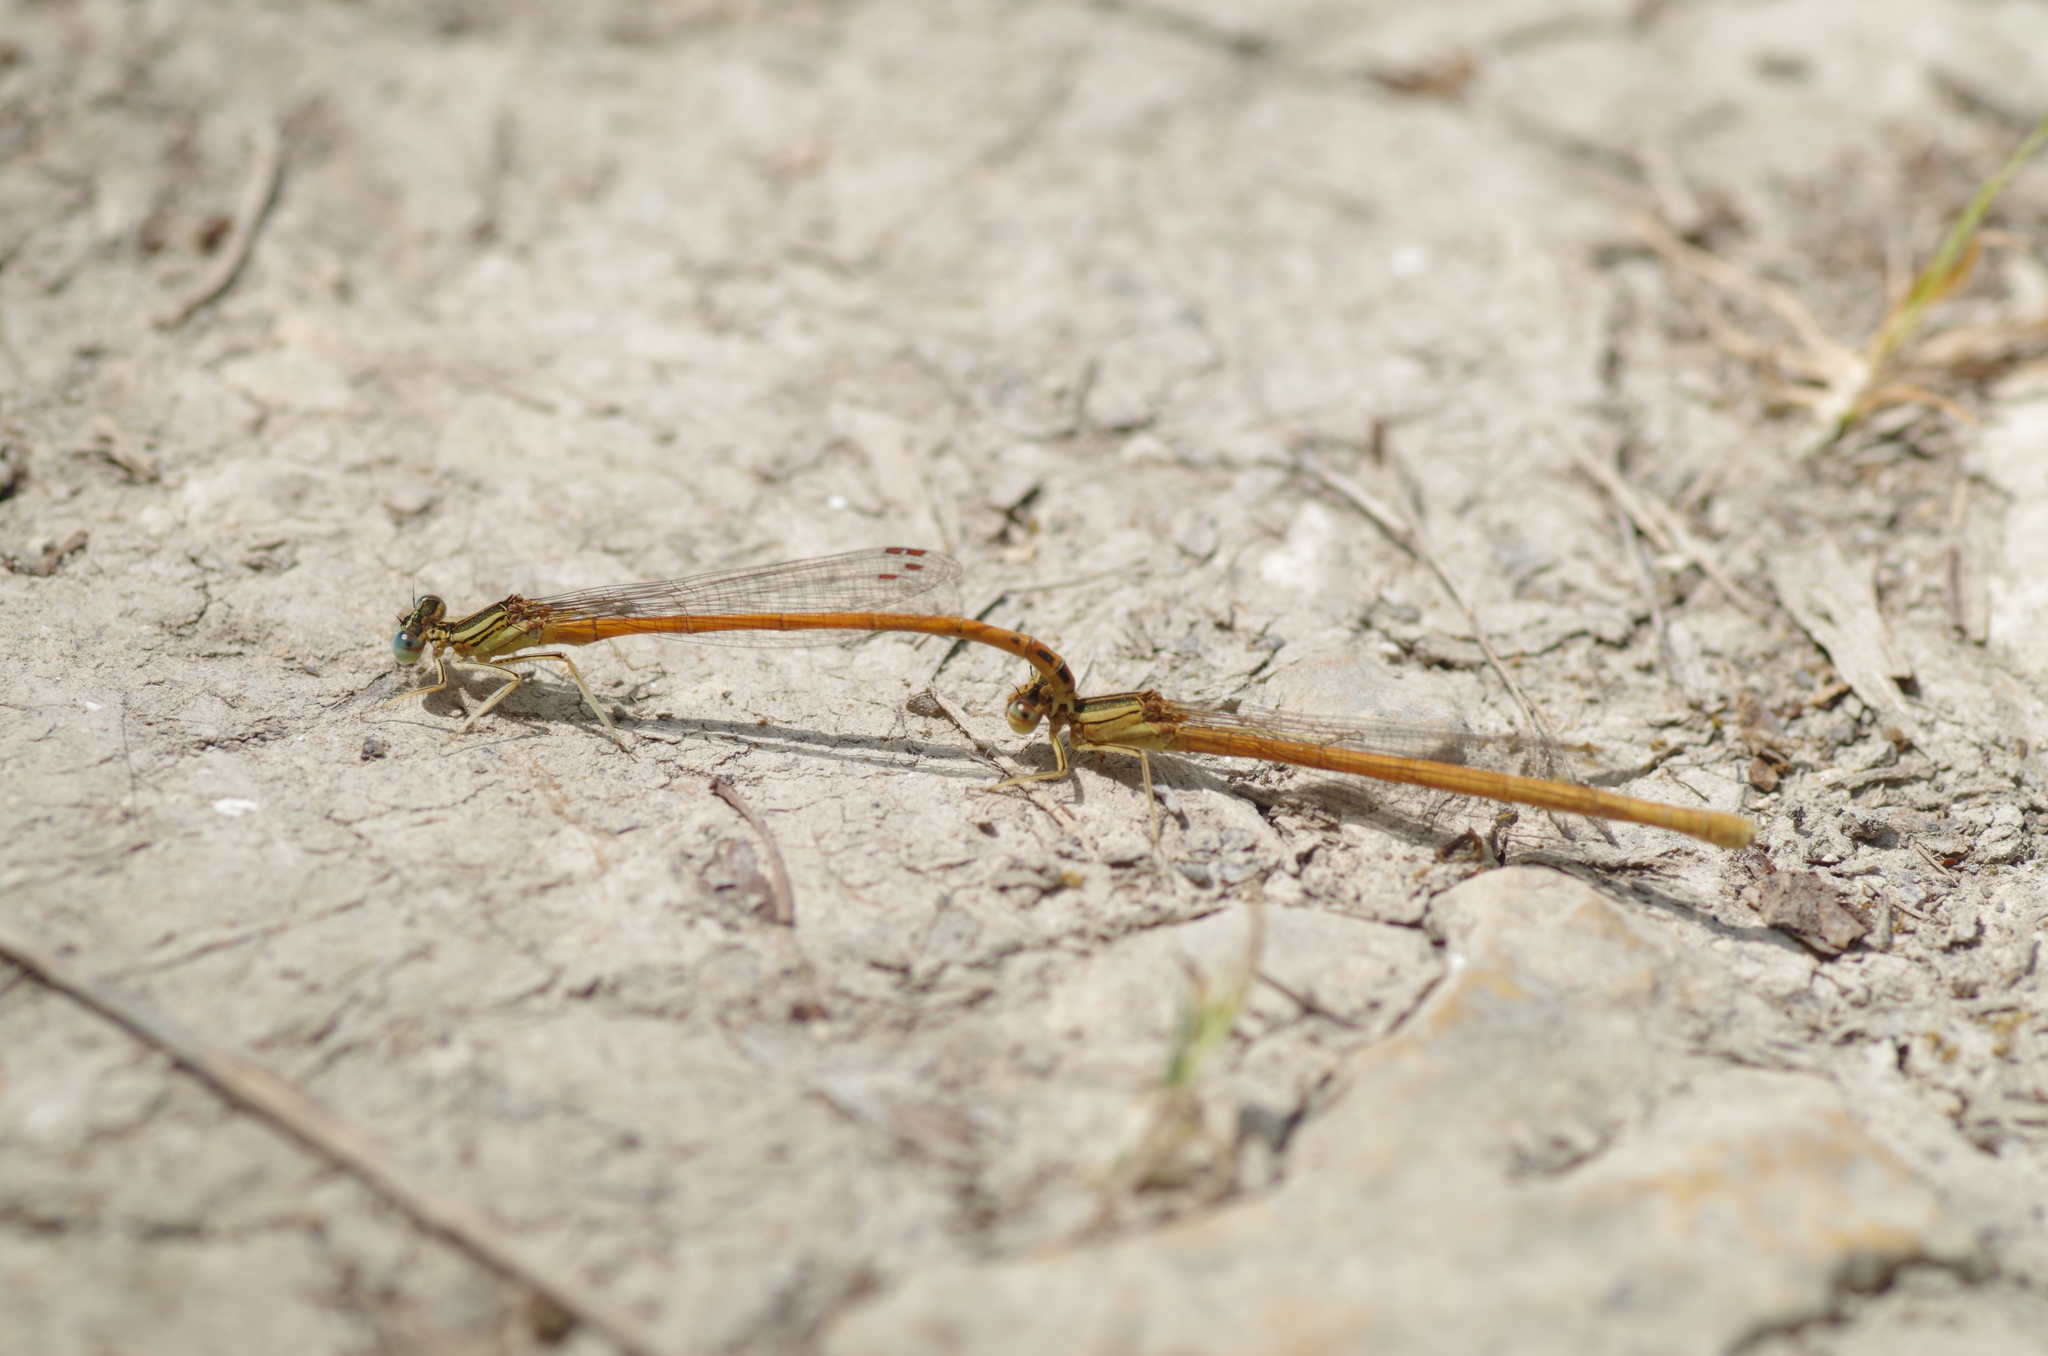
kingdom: Animalia
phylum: Arthropoda
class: Insecta
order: Odonata
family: Platycnemididae
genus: Platycnemis
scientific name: Platycnemis acutipennis
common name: Orange featherleg
